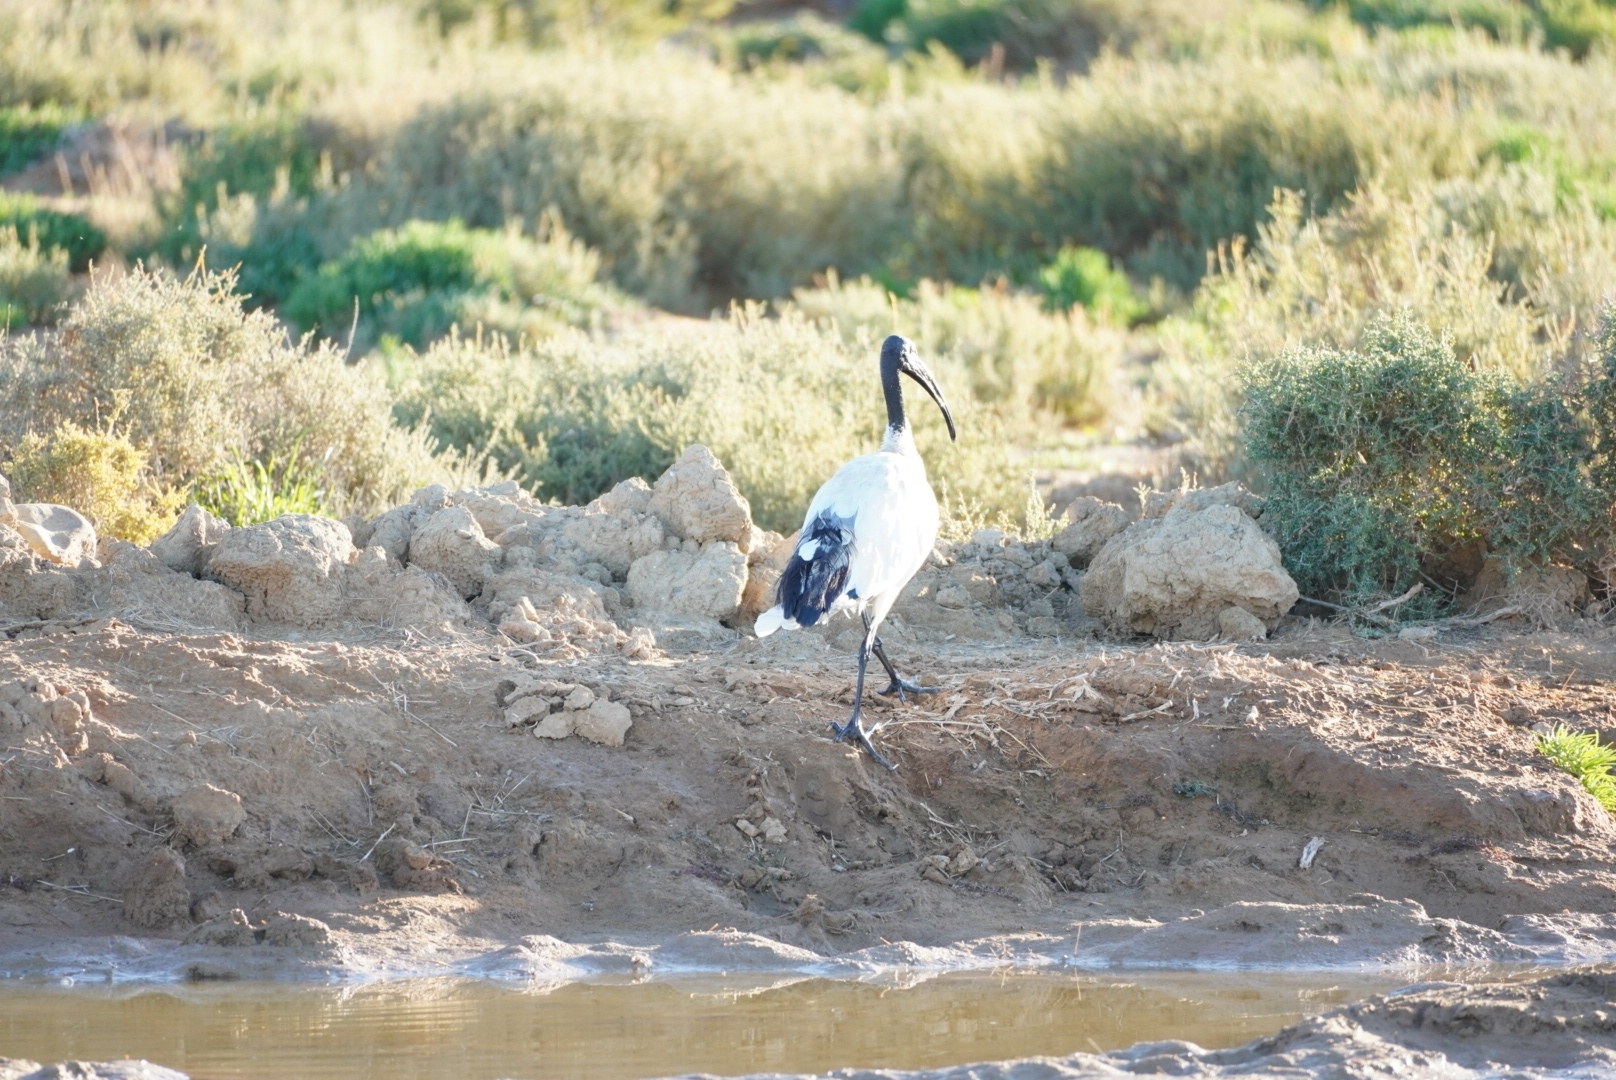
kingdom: Animalia
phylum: Chordata
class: Aves
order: Pelecaniformes
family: Threskiornithidae
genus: Threskiornis
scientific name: Threskiornis aethiopicus
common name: Sacred ibis
